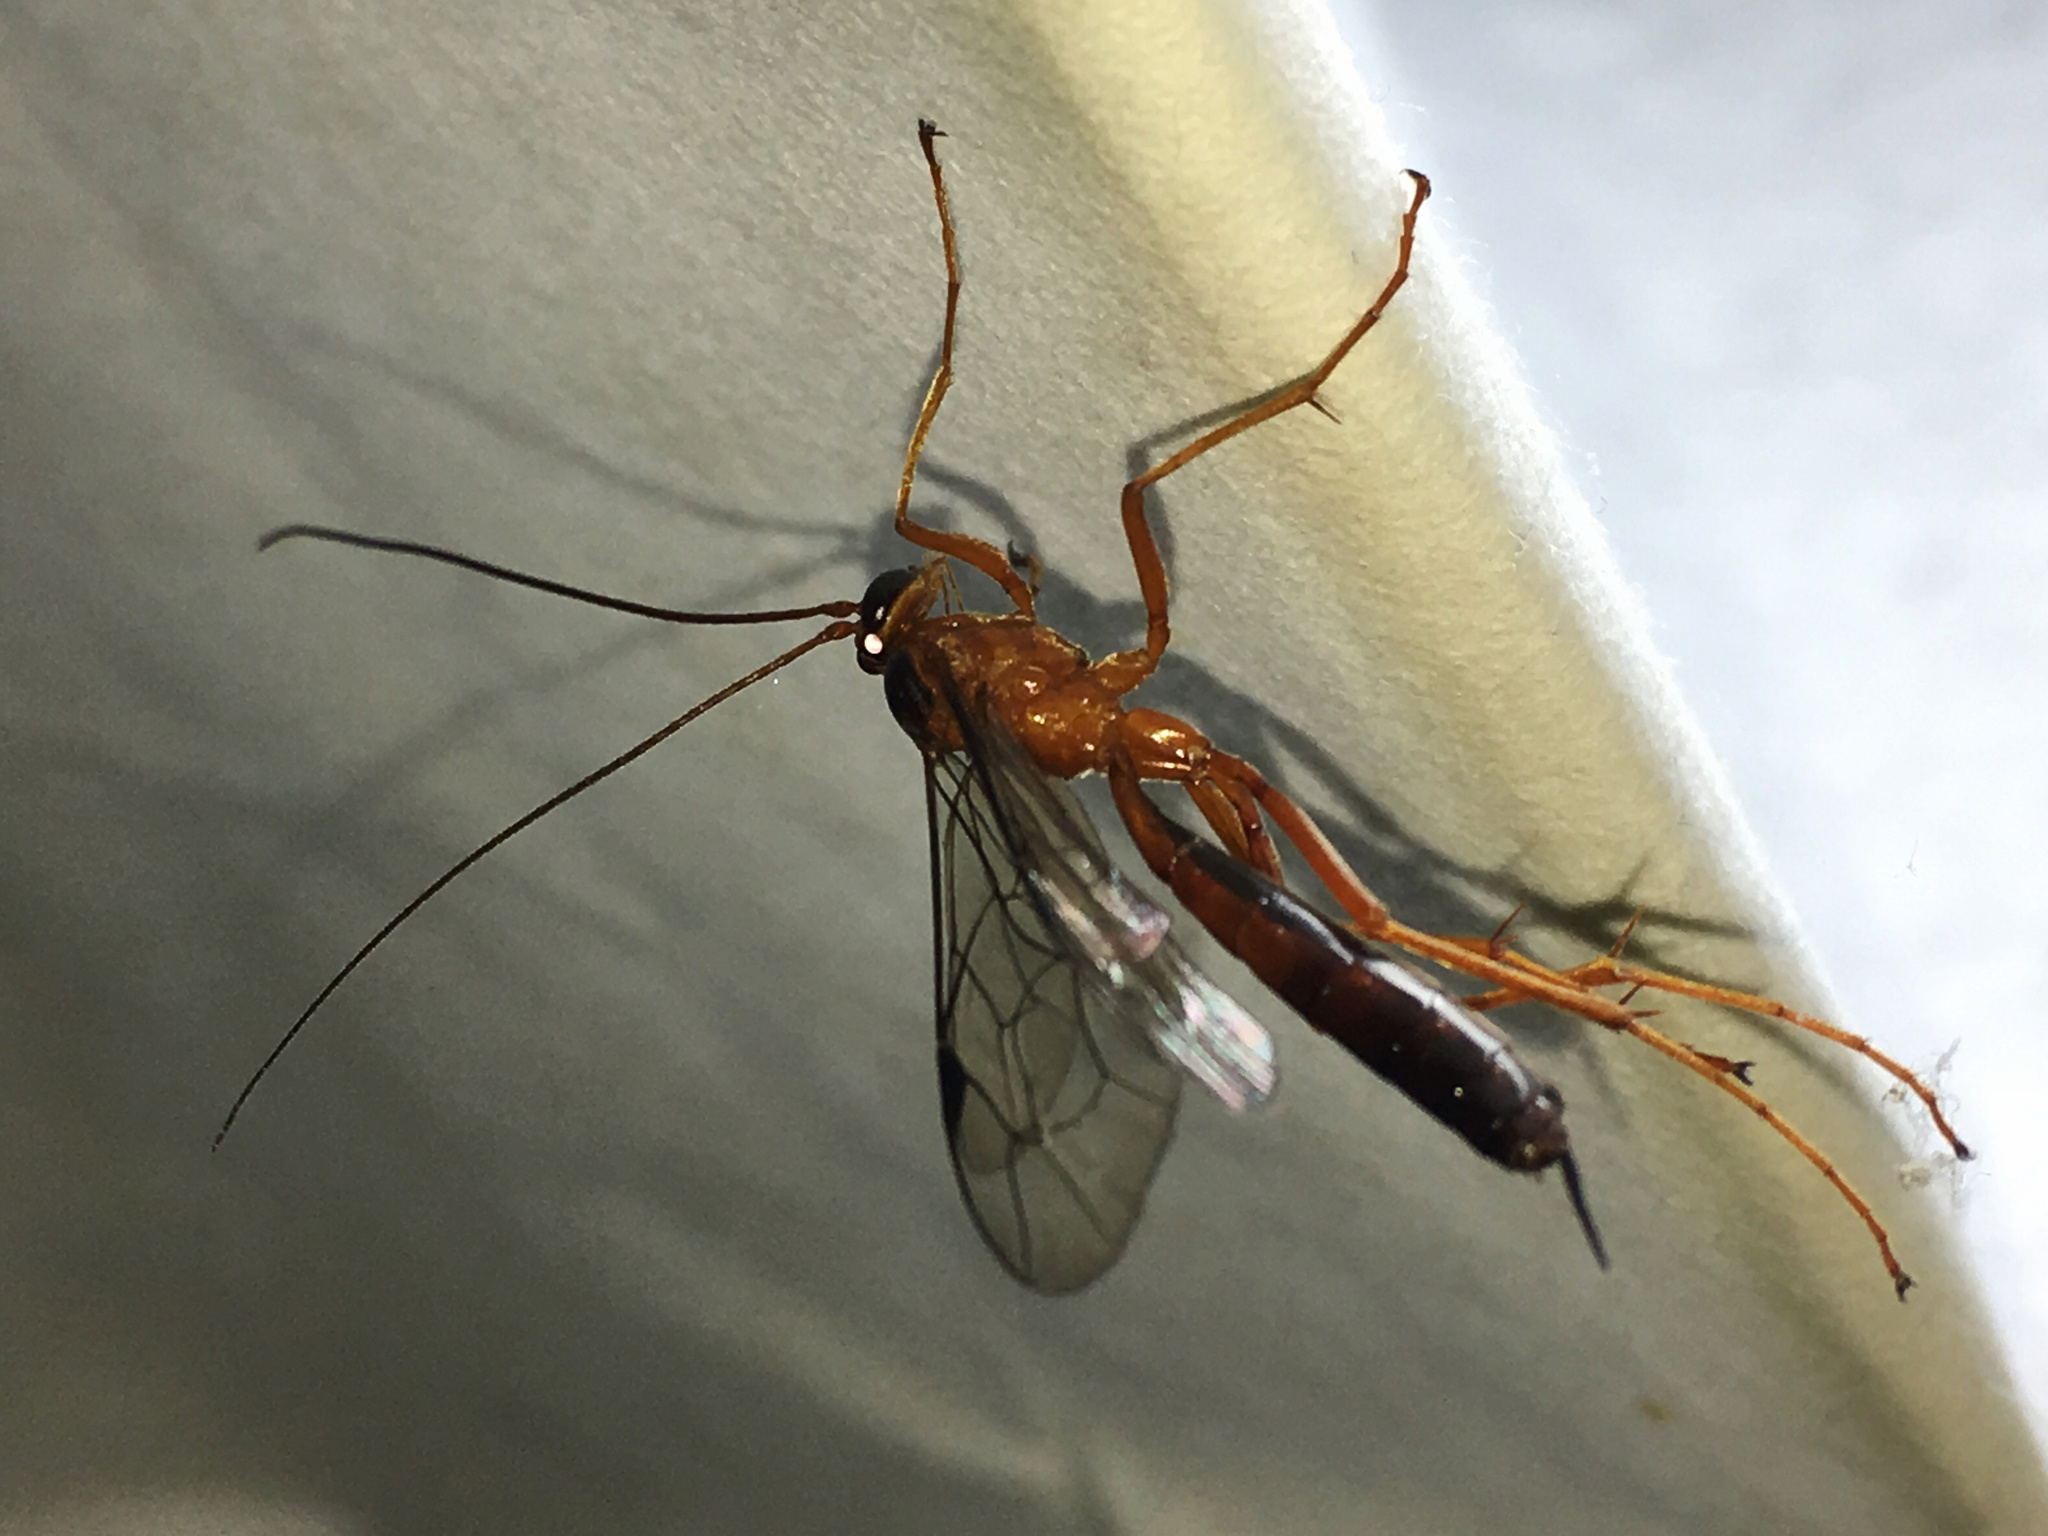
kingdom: Animalia
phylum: Arthropoda
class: Insecta
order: Hymenoptera
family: Ichneumonidae
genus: Netelia
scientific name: Netelia ephippiata
